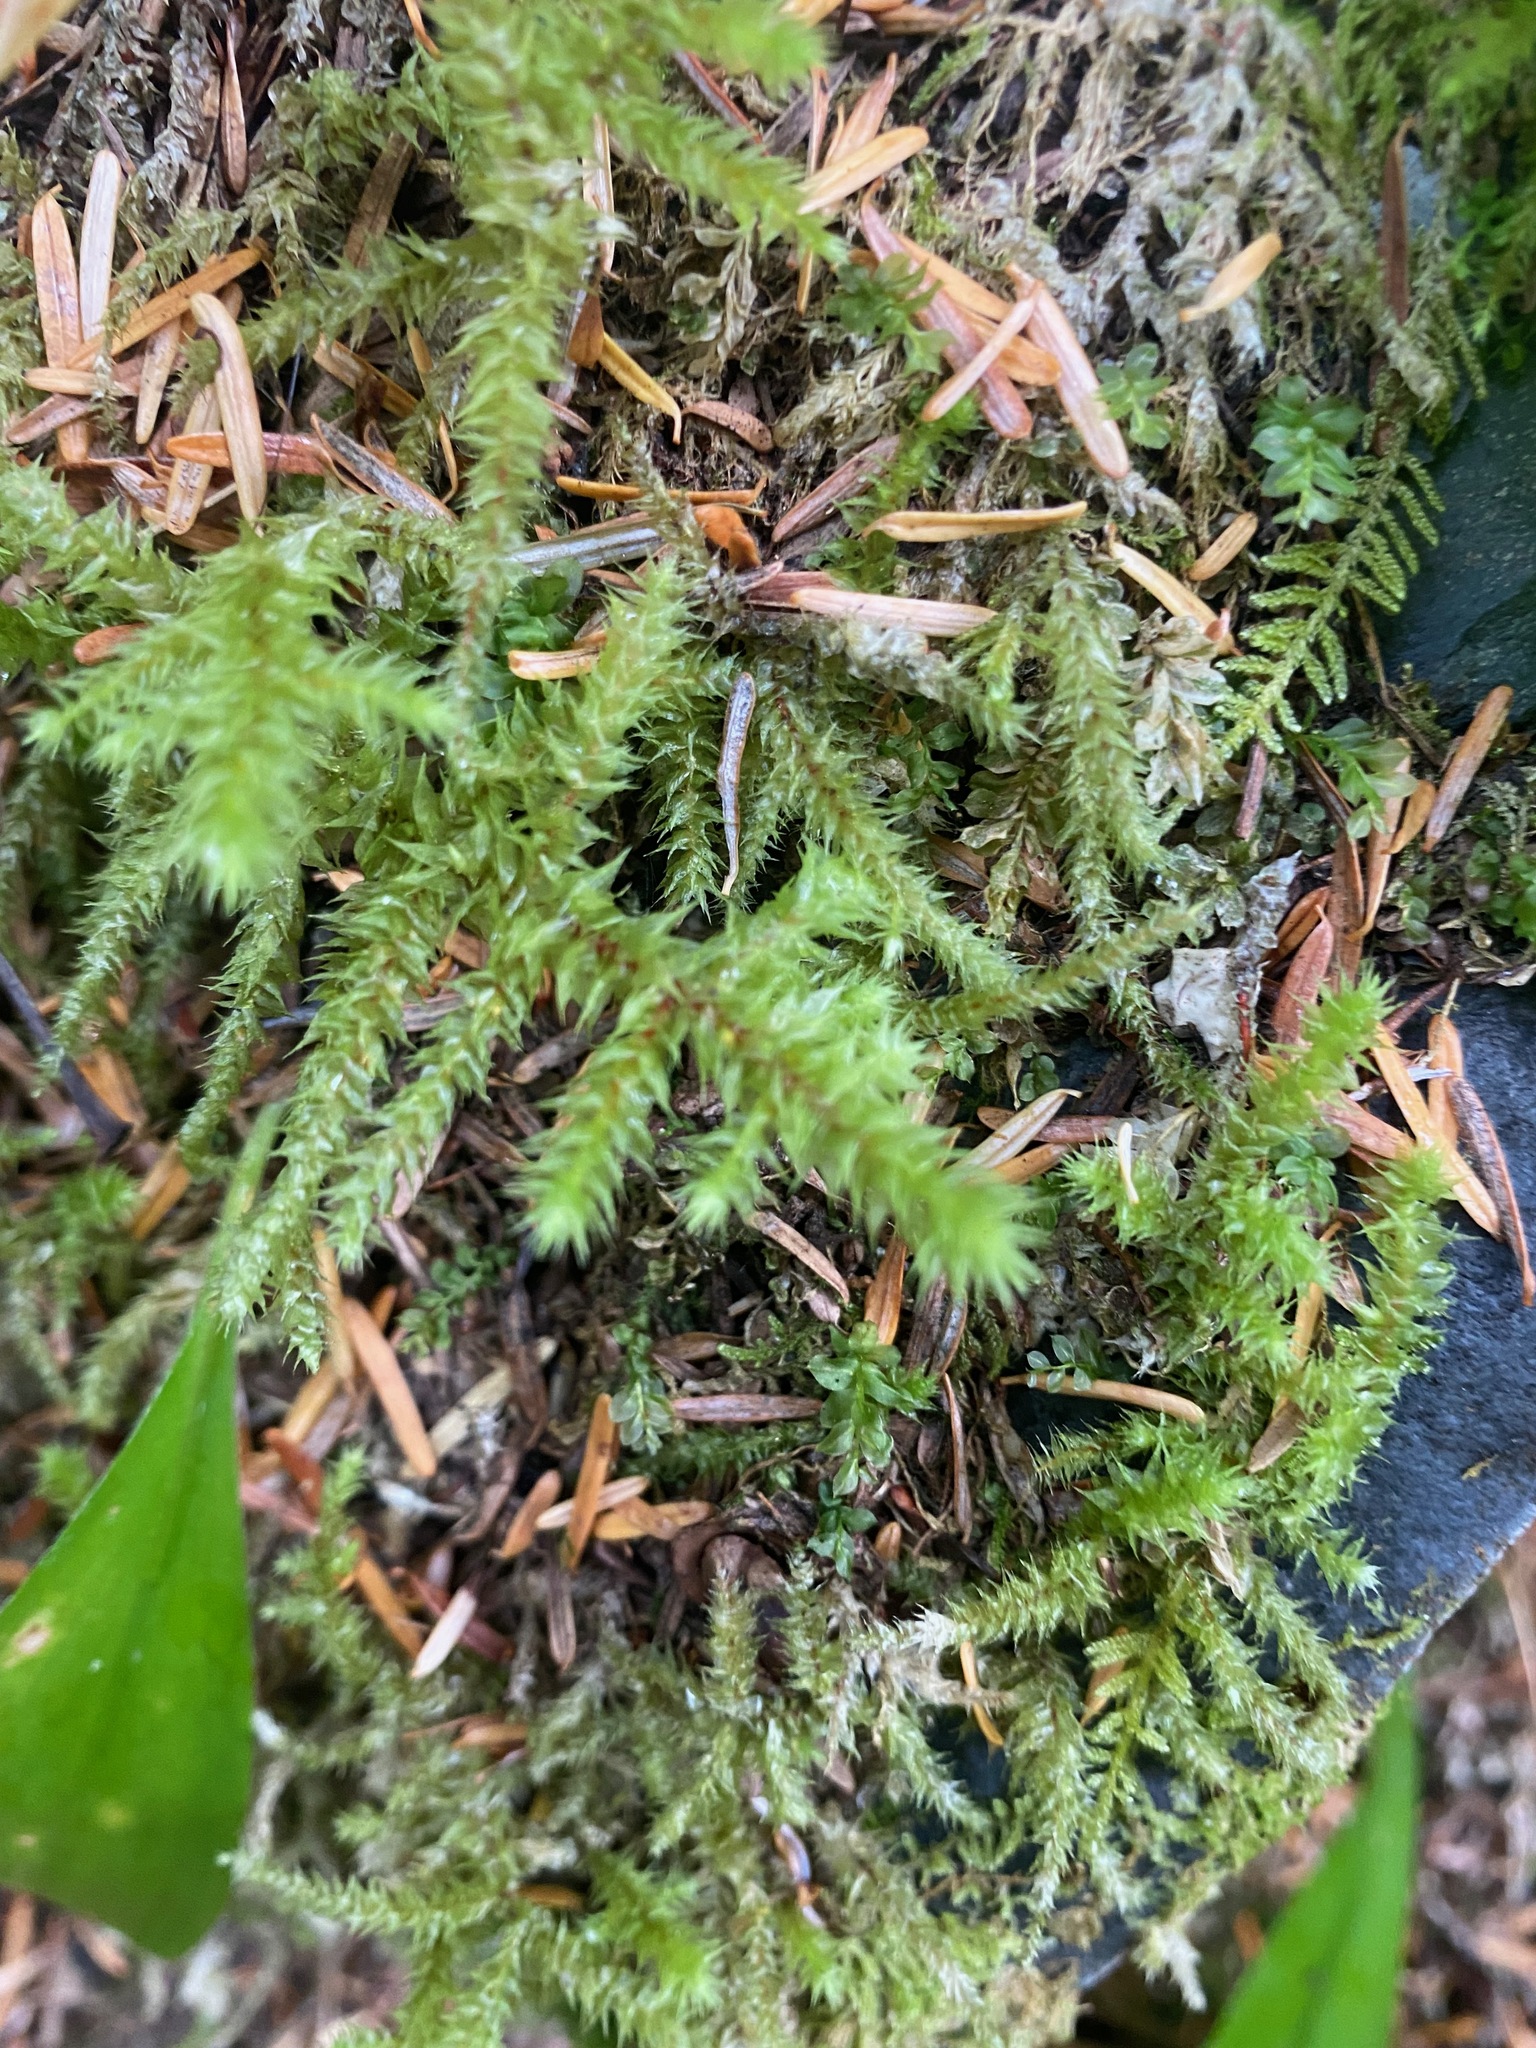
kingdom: Plantae
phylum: Bryophyta
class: Bryopsida
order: Hypnales
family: Hylocomiaceae
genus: Hylocomiadelphus
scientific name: Hylocomiadelphus triquetrus
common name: Rough goose neck moss
